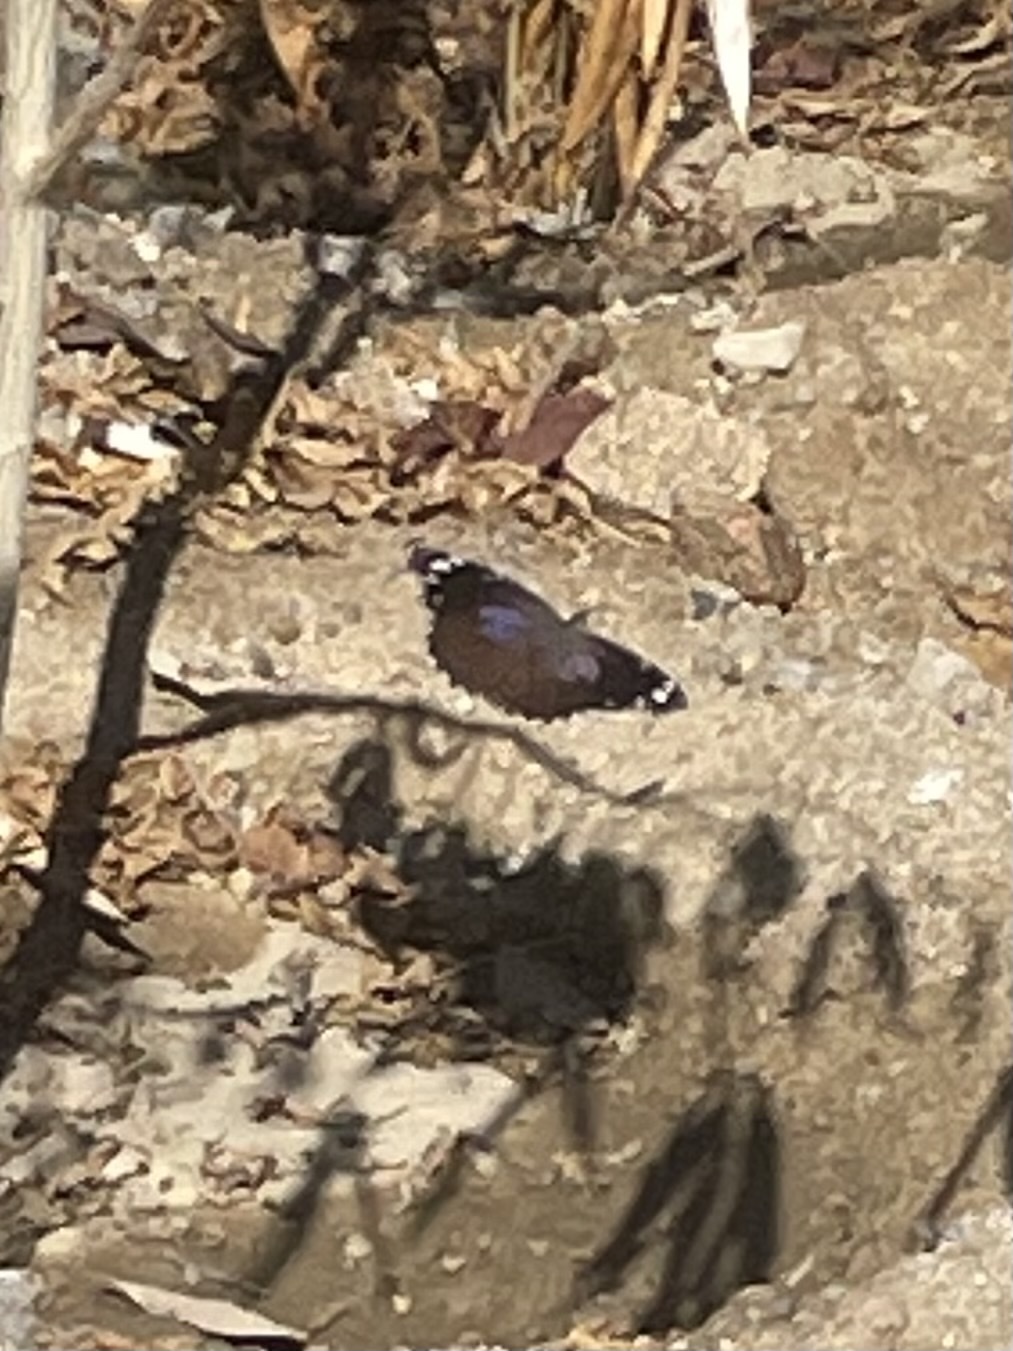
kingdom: Animalia
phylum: Arthropoda
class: Insecta
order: Lepidoptera
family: Nymphalidae
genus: Myscelia
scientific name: Myscelia cyananthe
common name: Blackened bluewing
